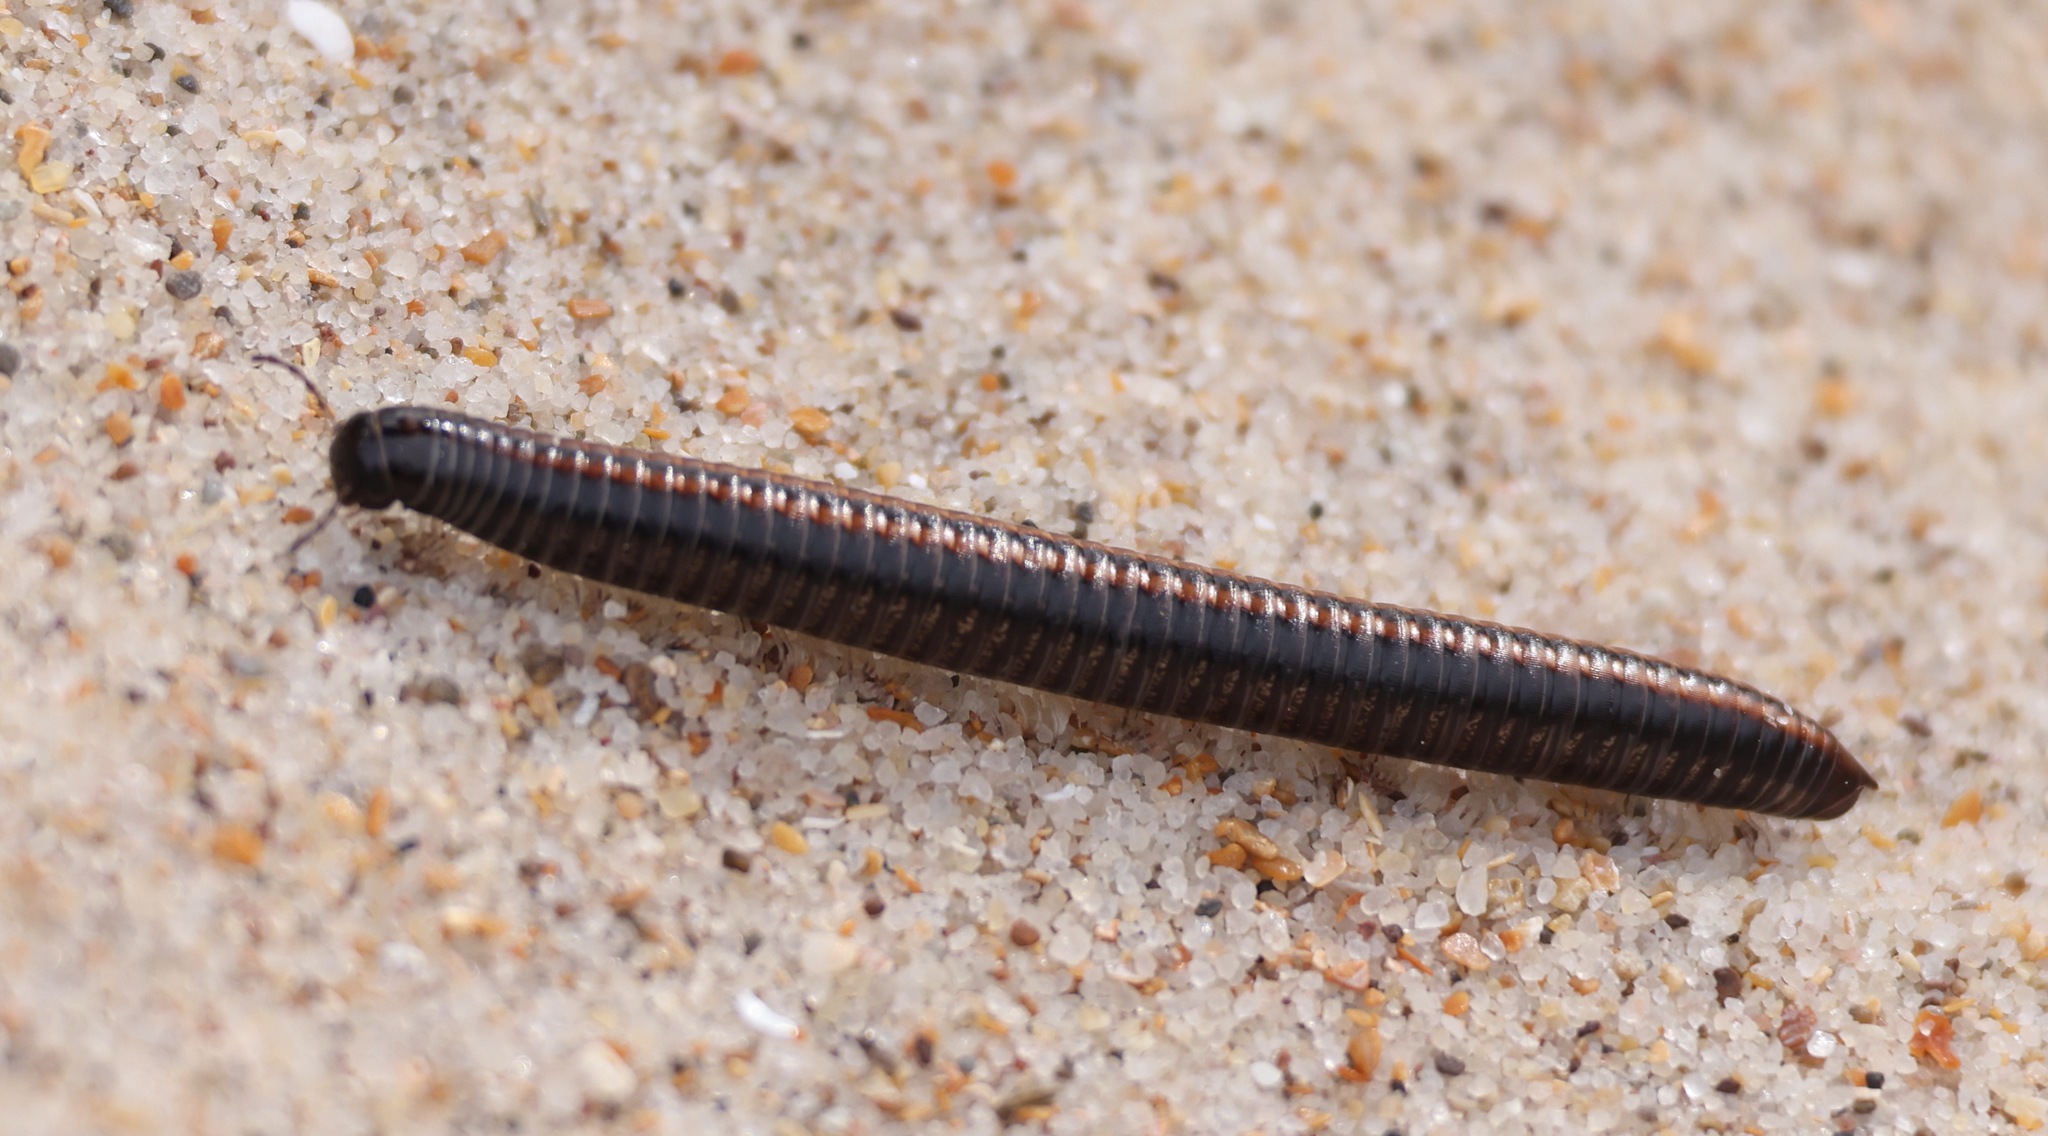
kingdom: Animalia
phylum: Arthropoda
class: Diplopoda
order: Julida
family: Julidae
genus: Ommatoiulus
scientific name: Ommatoiulus sabulosus
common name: Striped millipede
